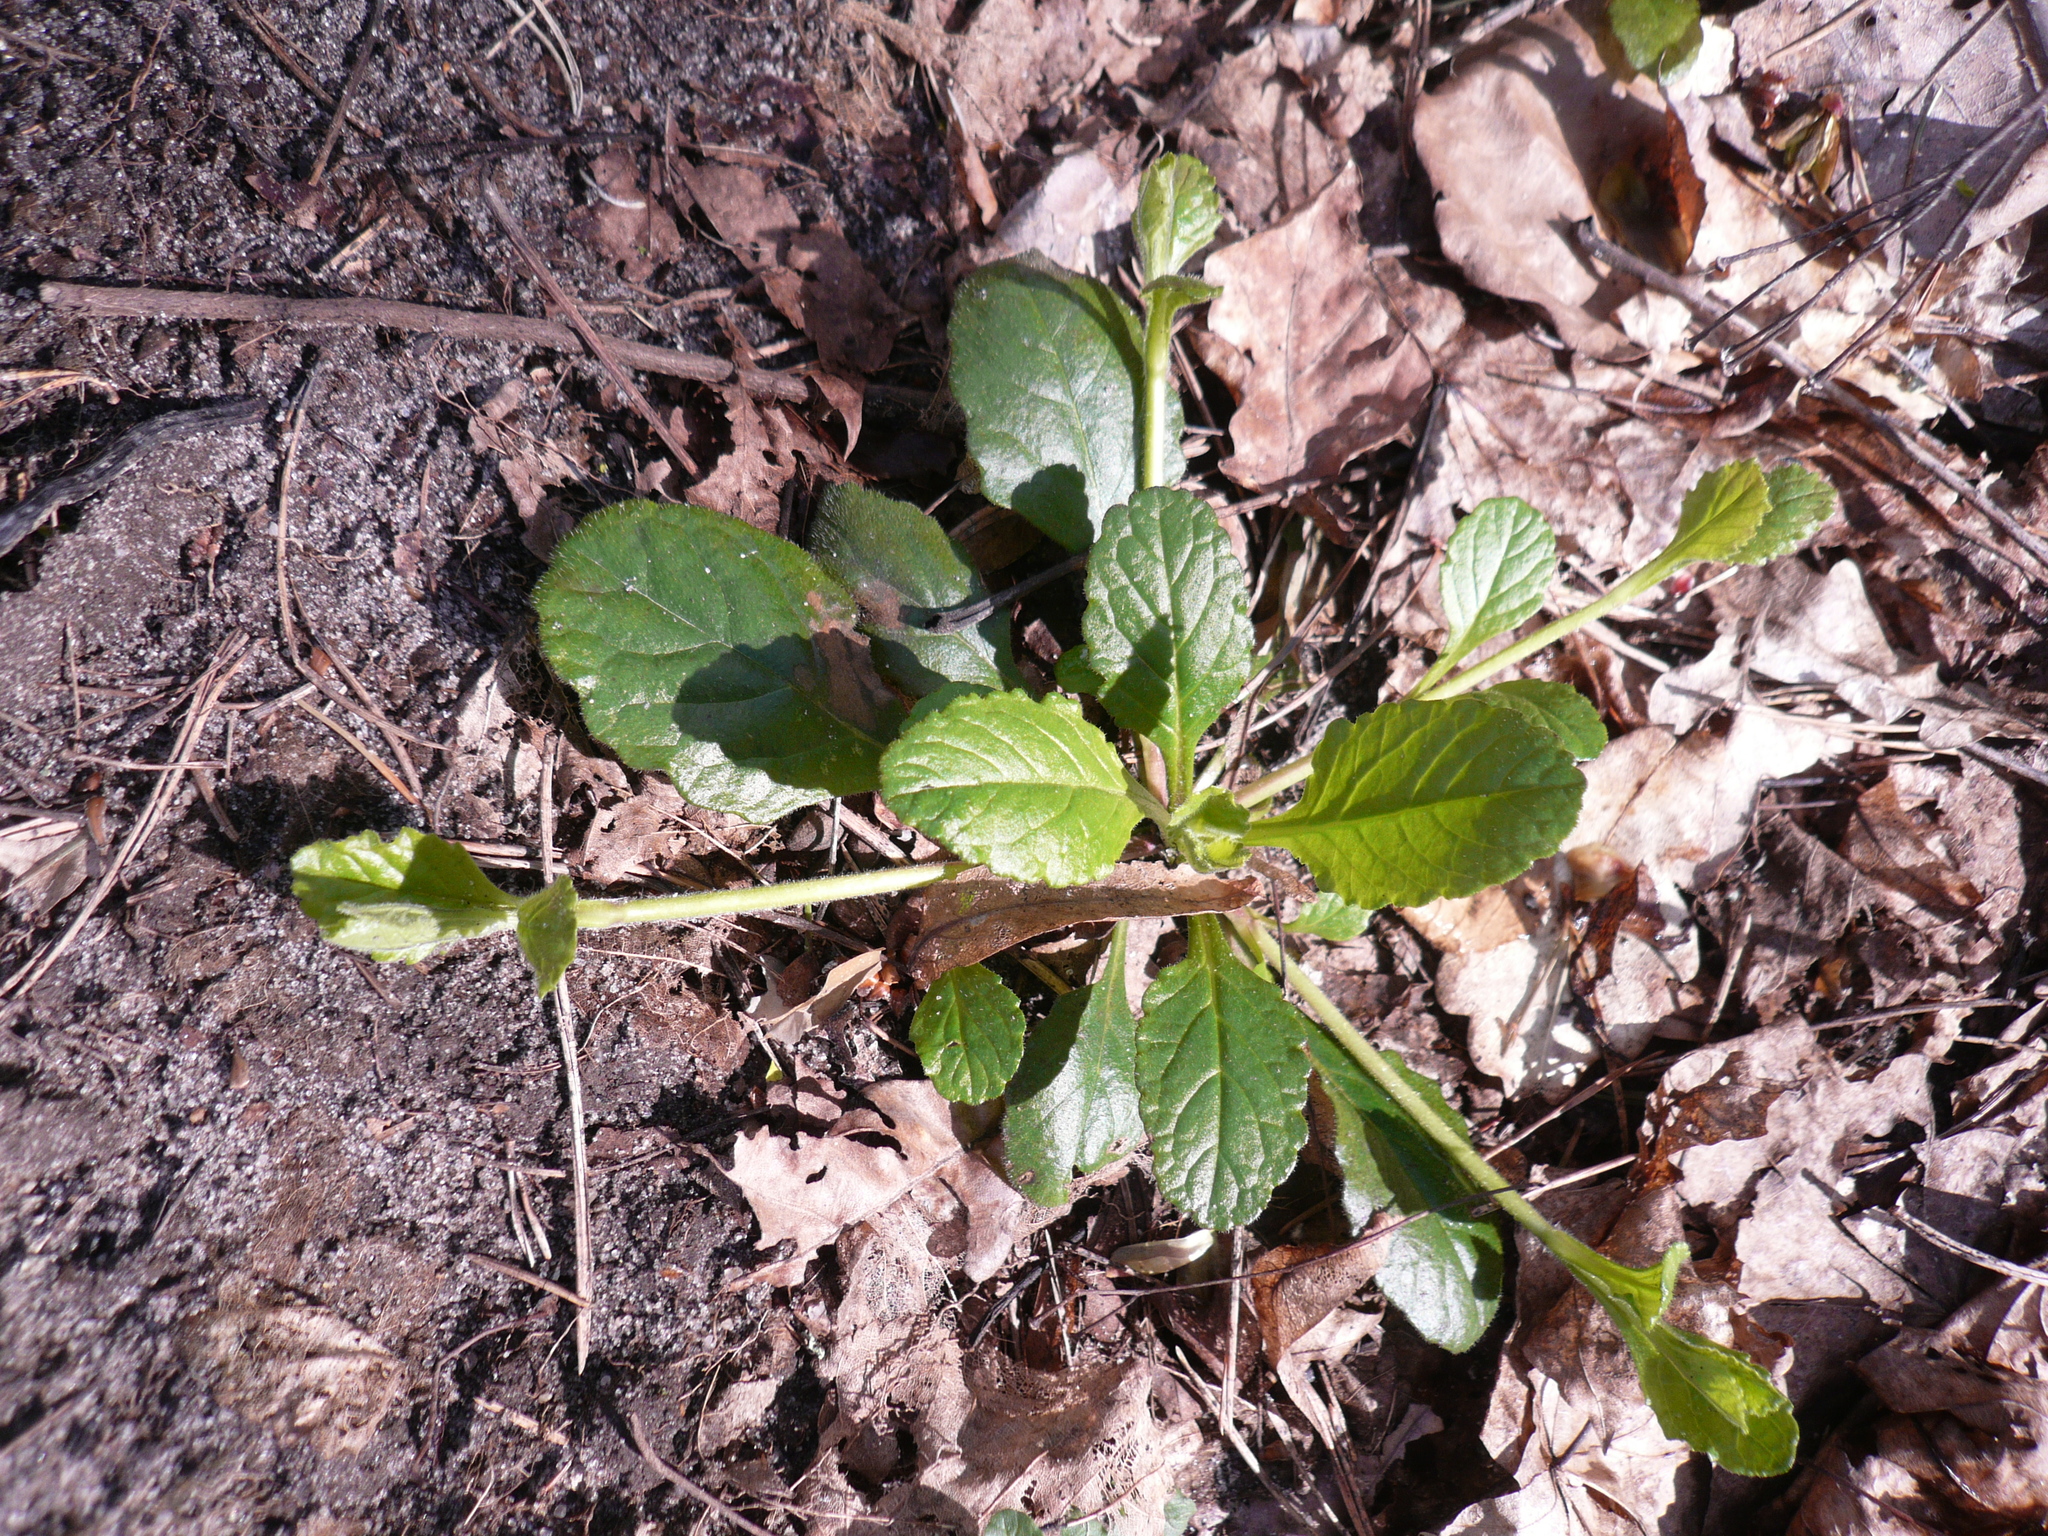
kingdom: Plantae
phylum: Tracheophyta
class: Magnoliopsida
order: Lamiales
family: Lamiaceae
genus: Ajuga
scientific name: Ajuga reptans
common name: Bugle
